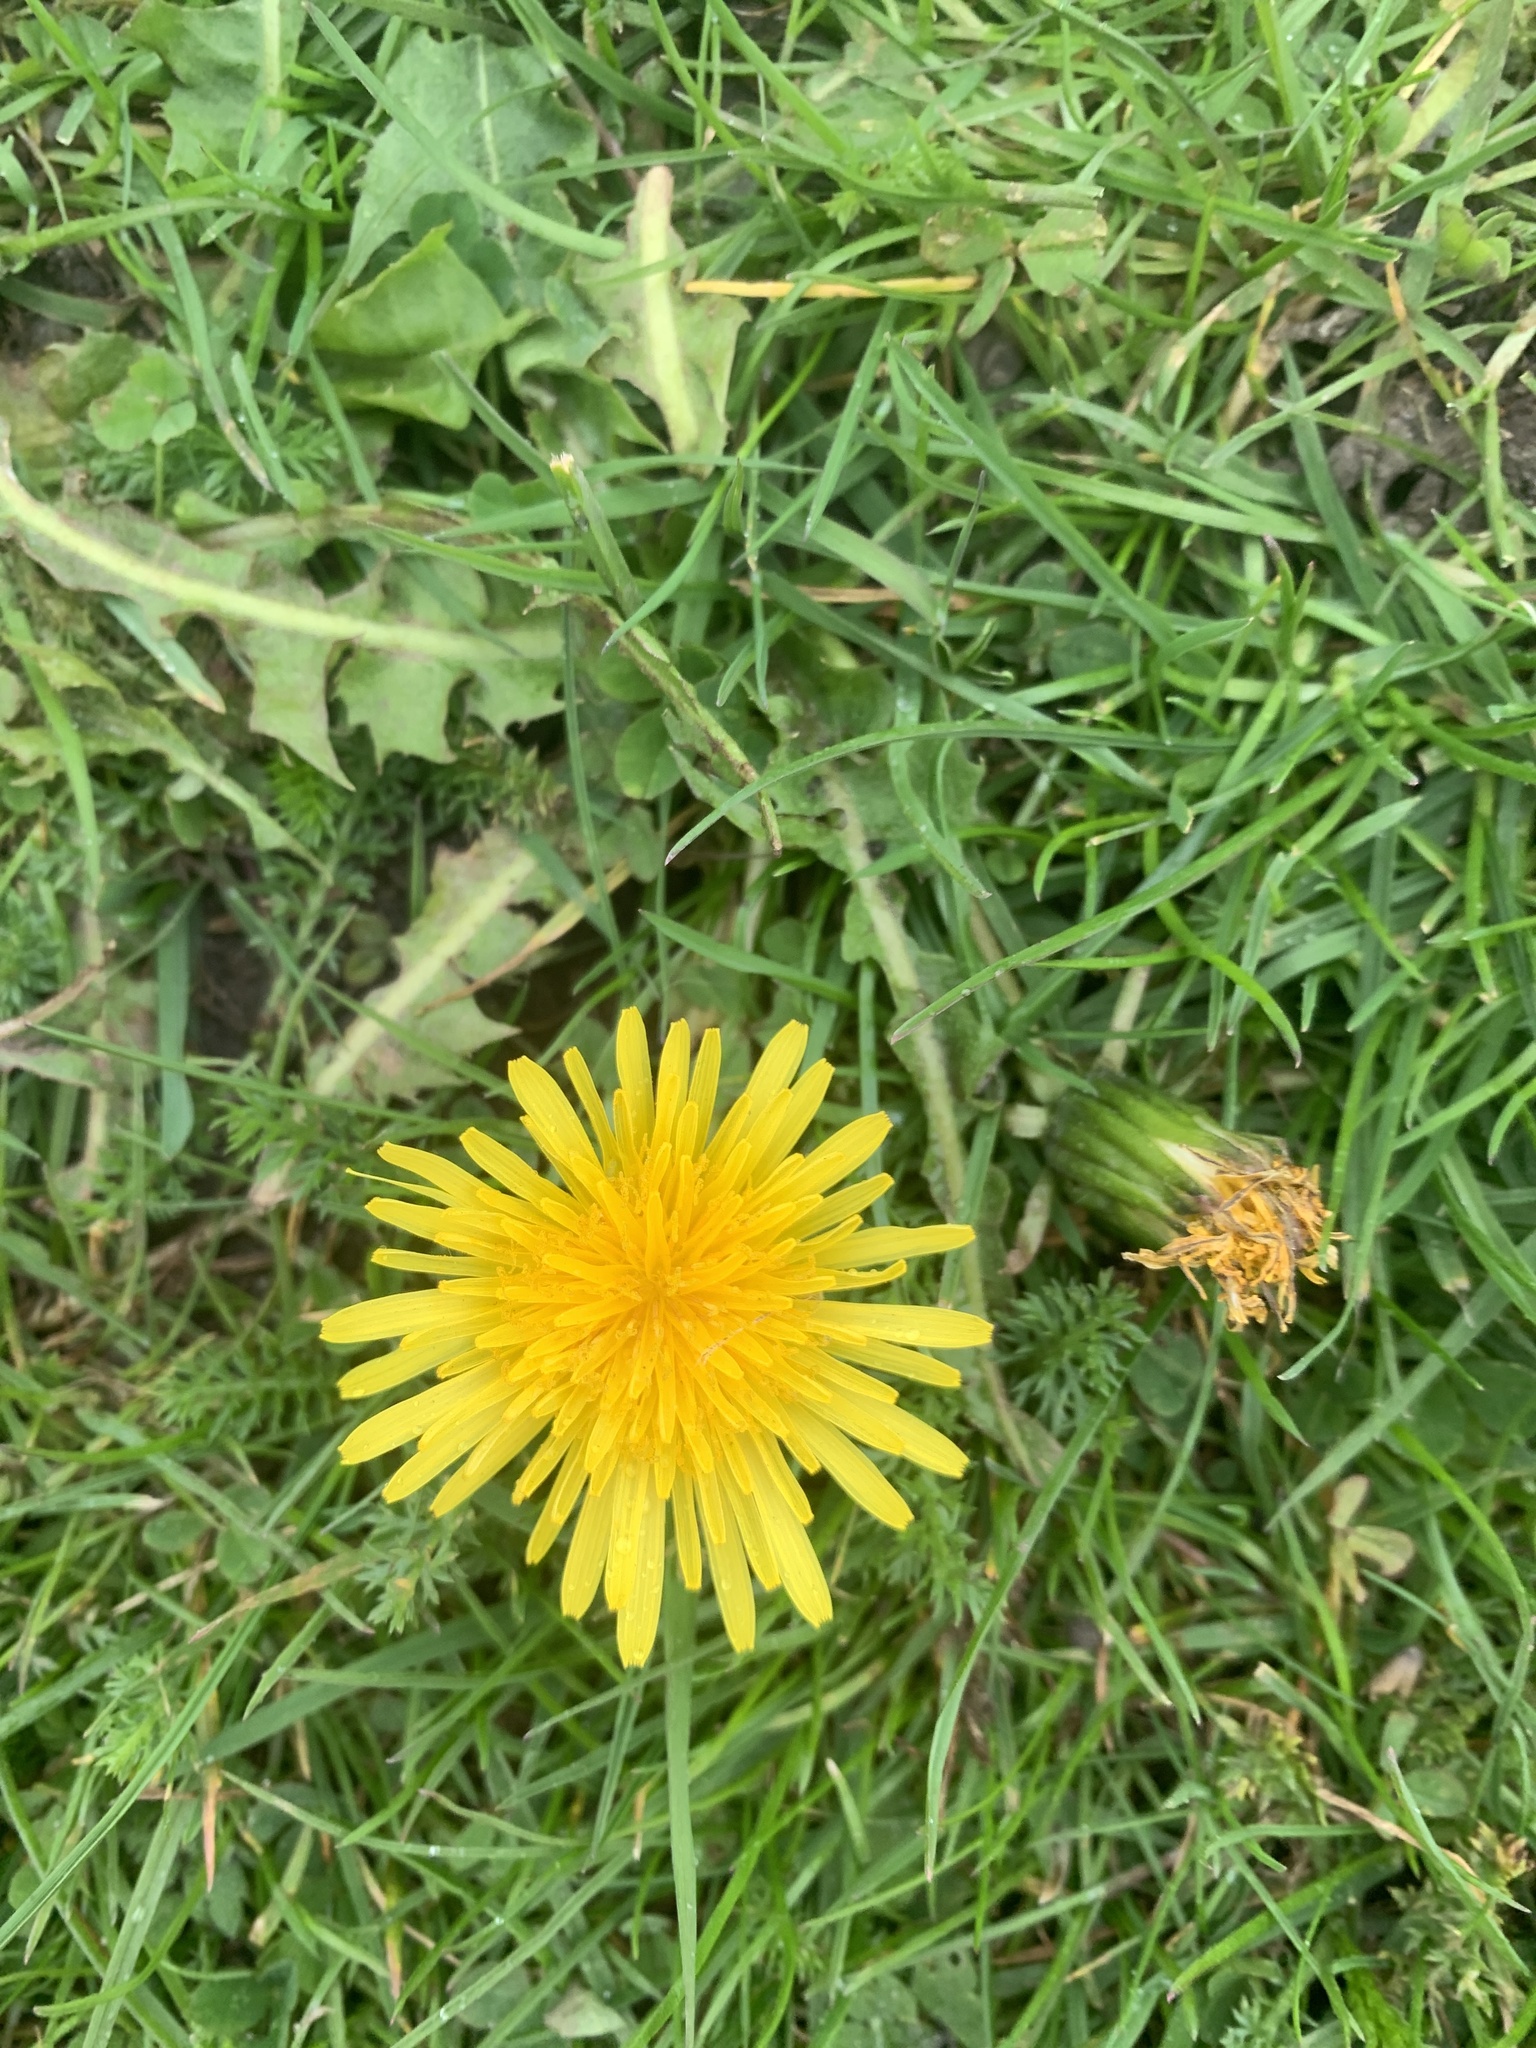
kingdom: Plantae
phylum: Tracheophyta
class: Magnoliopsida
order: Asterales
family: Asteraceae
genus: Taraxacum
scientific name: Taraxacum officinale
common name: Common dandelion
